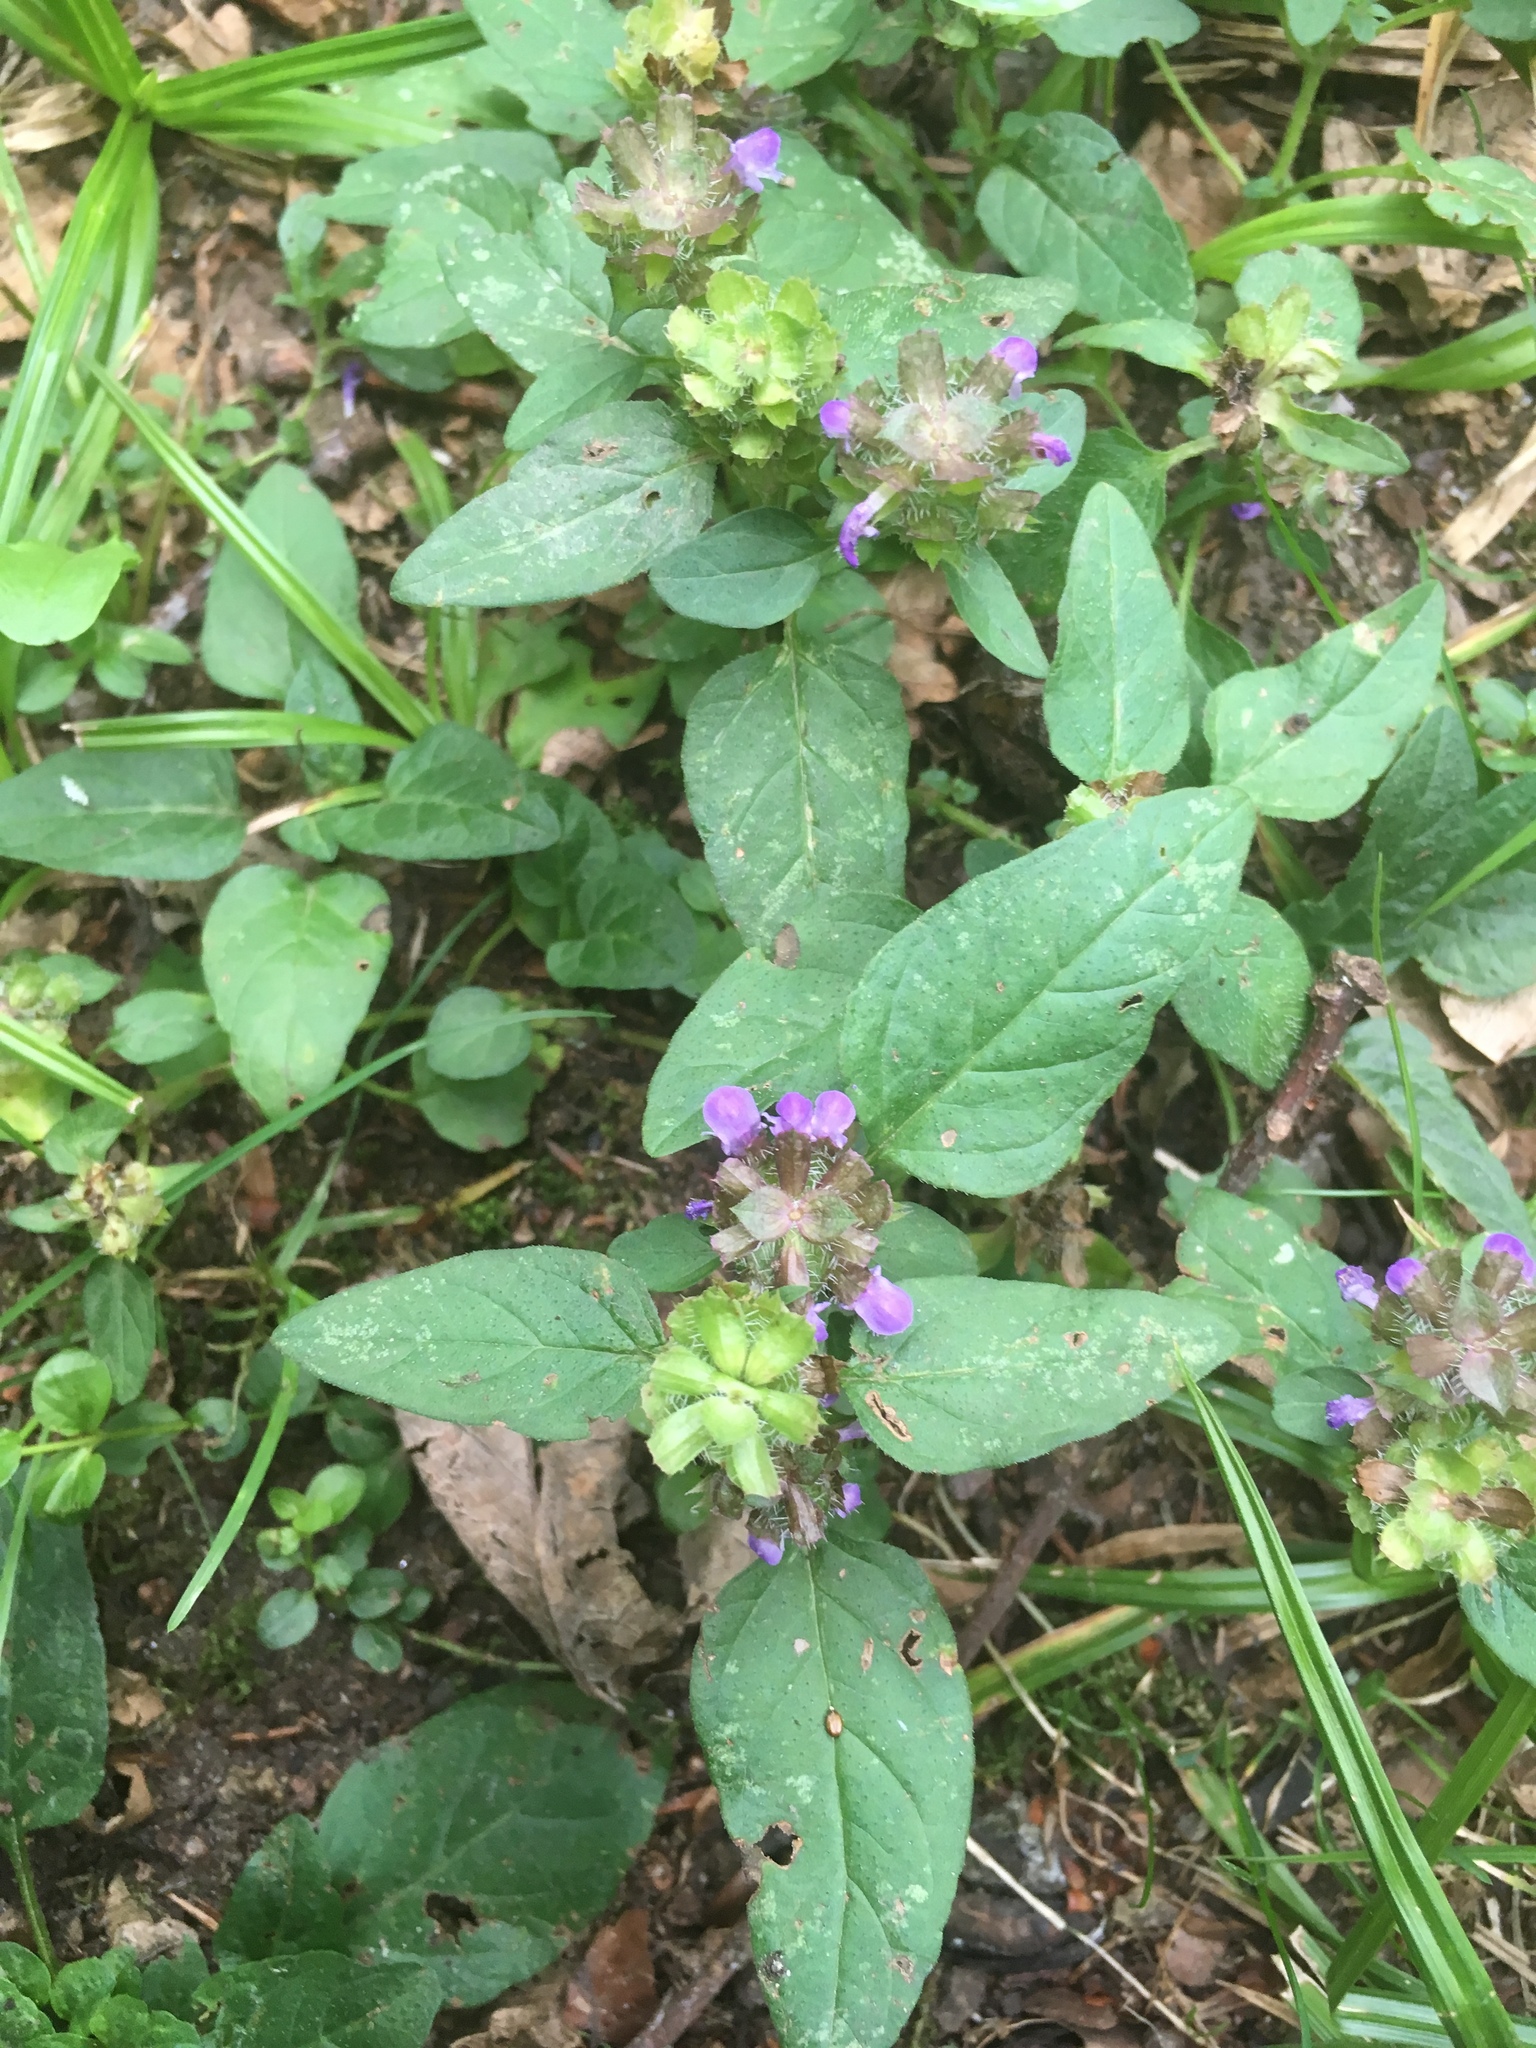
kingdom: Plantae
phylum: Tracheophyta
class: Magnoliopsida
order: Lamiales
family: Lamiaceae
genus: Prunella
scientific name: Prunella vulgaris
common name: Heal-all
